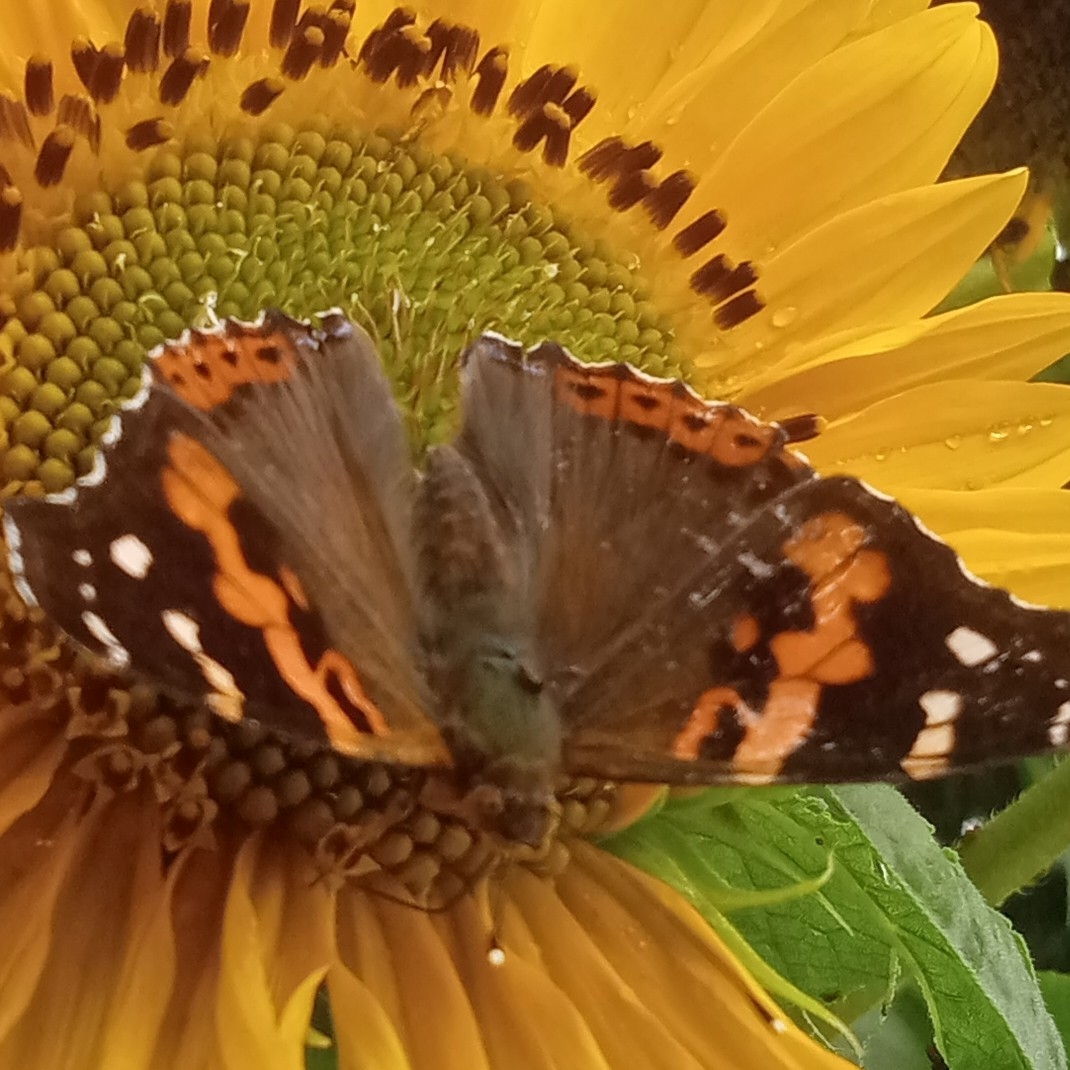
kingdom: Animalia
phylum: Arthropoda
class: Insecta
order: Lepidoptera
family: Nymphalidae
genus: Vanessa
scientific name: Vanessa indica
